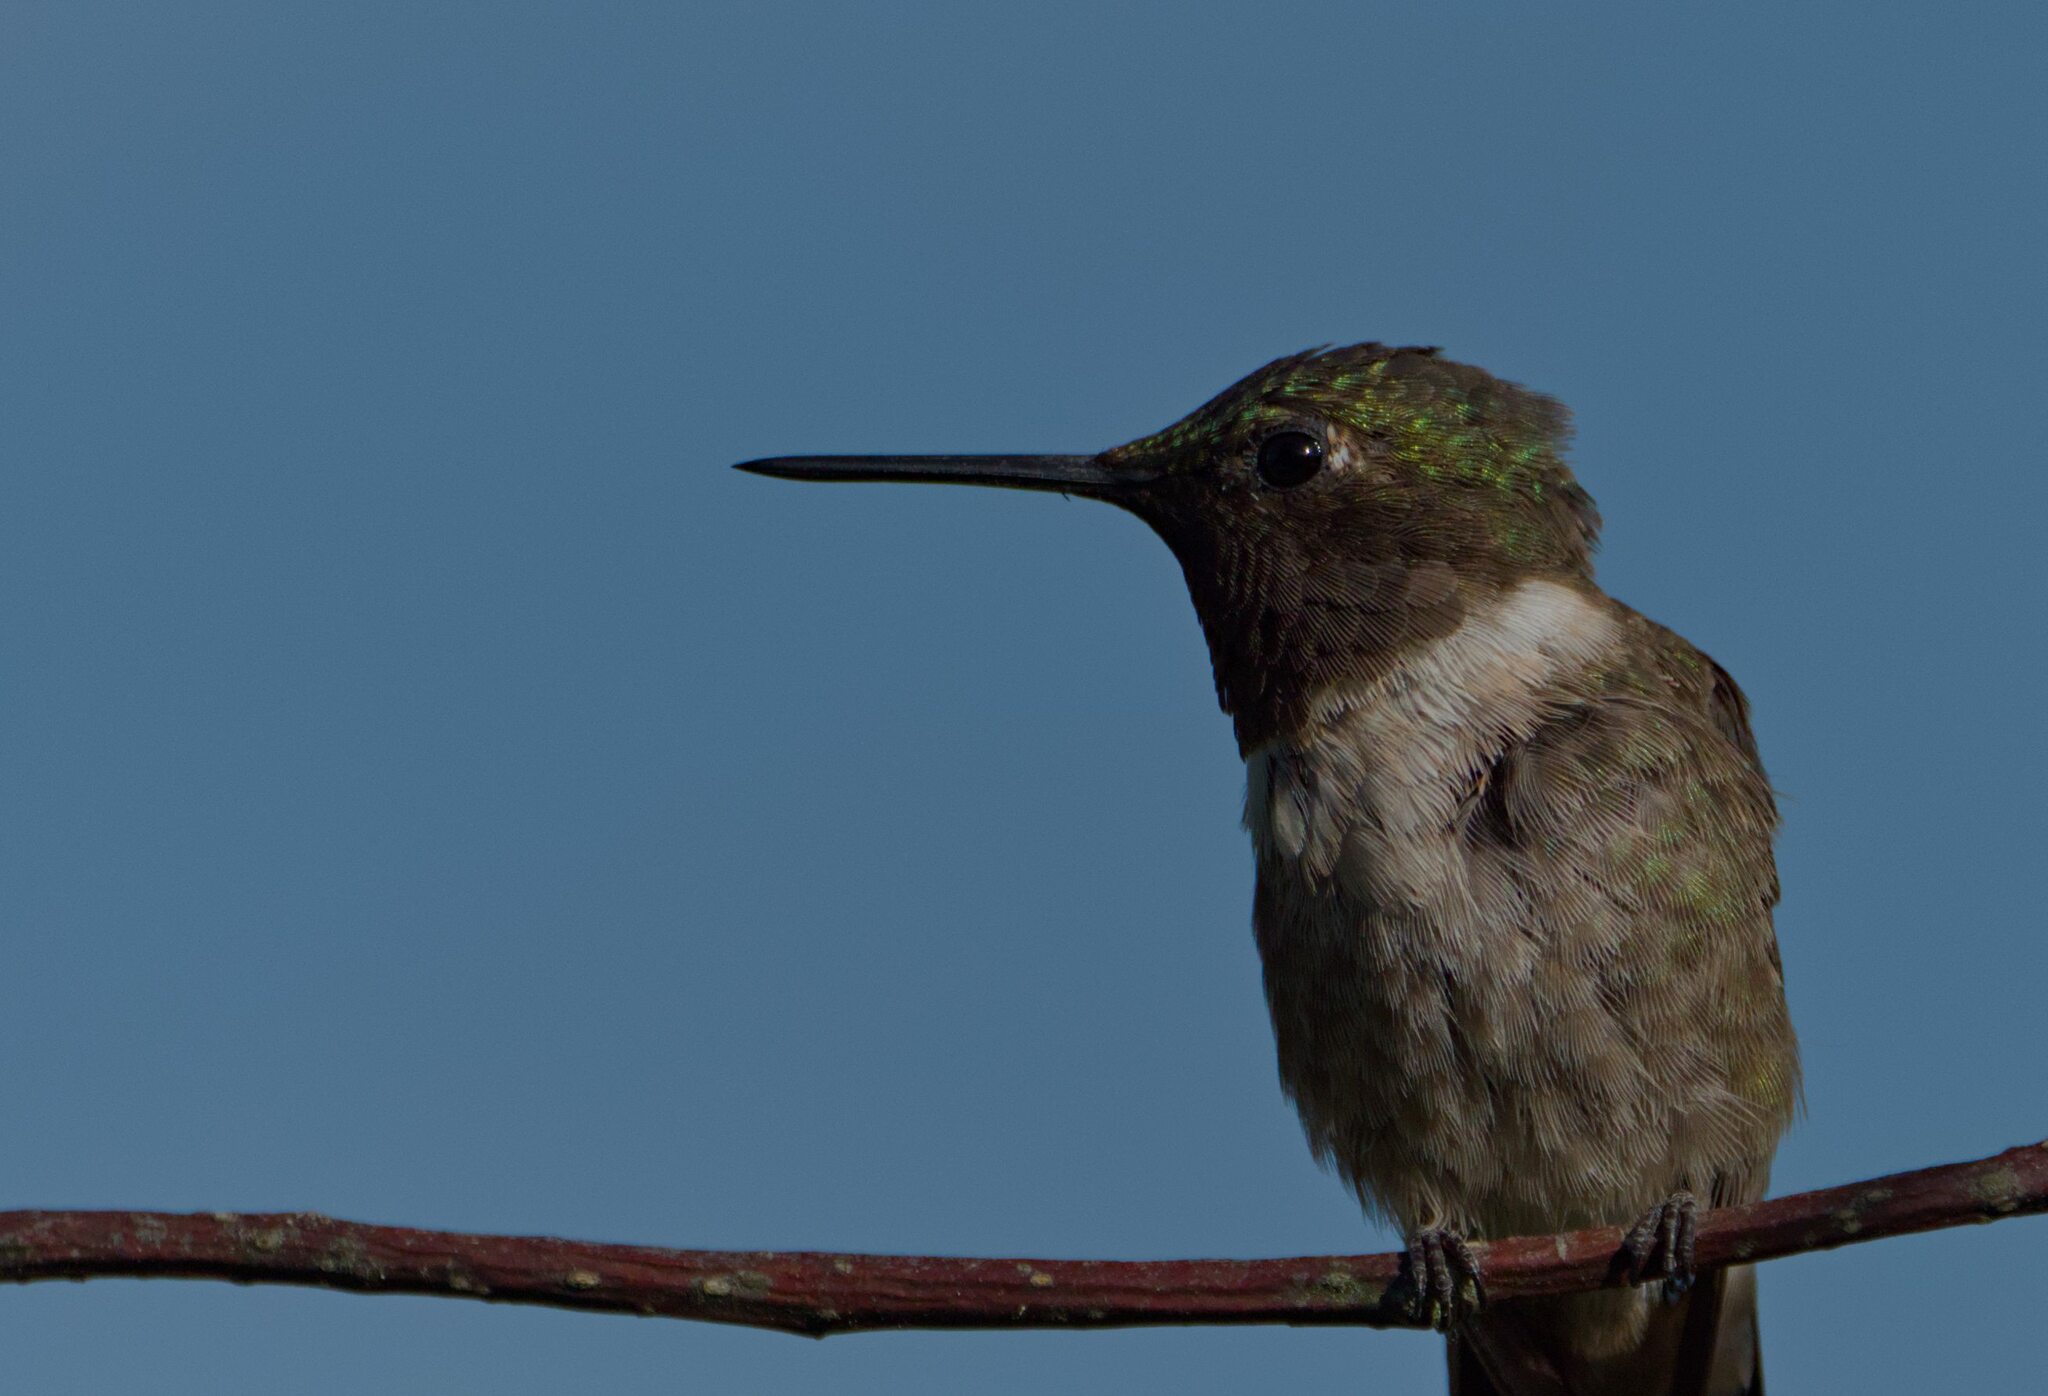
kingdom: Animalia
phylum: Chordata
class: Aves
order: Apodiformes
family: Trochilidae
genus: Archilochus
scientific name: Archilochus colubris
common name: Ruby-throated hummingbird
